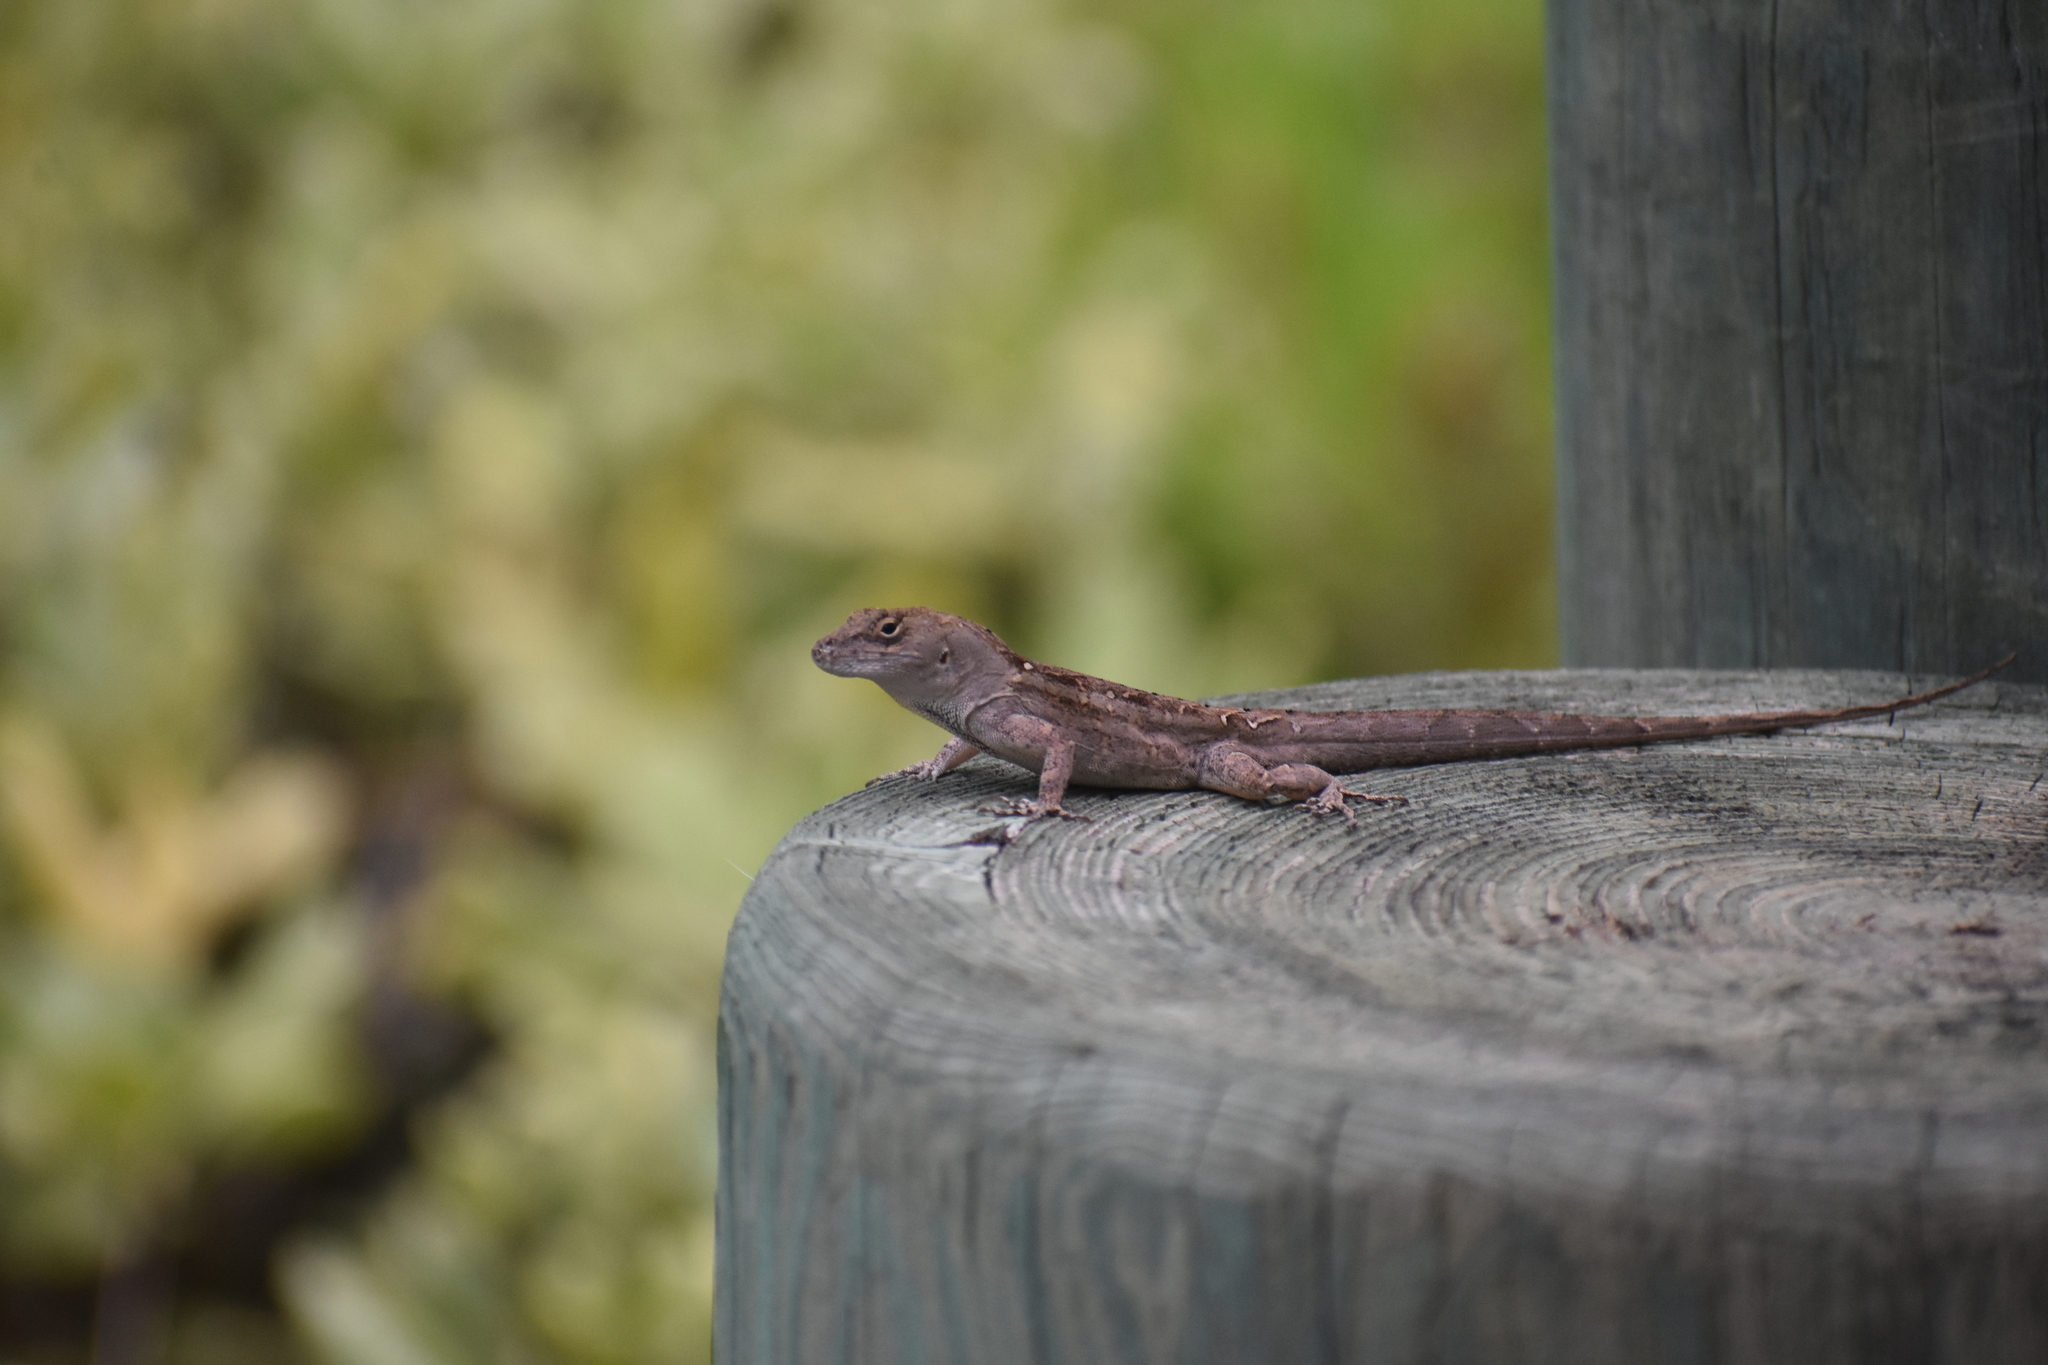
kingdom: Animalia
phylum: Chordata
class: Squamata
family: Dactyloidae
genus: Anolis
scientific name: Anolis sagrei
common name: Brown anole
